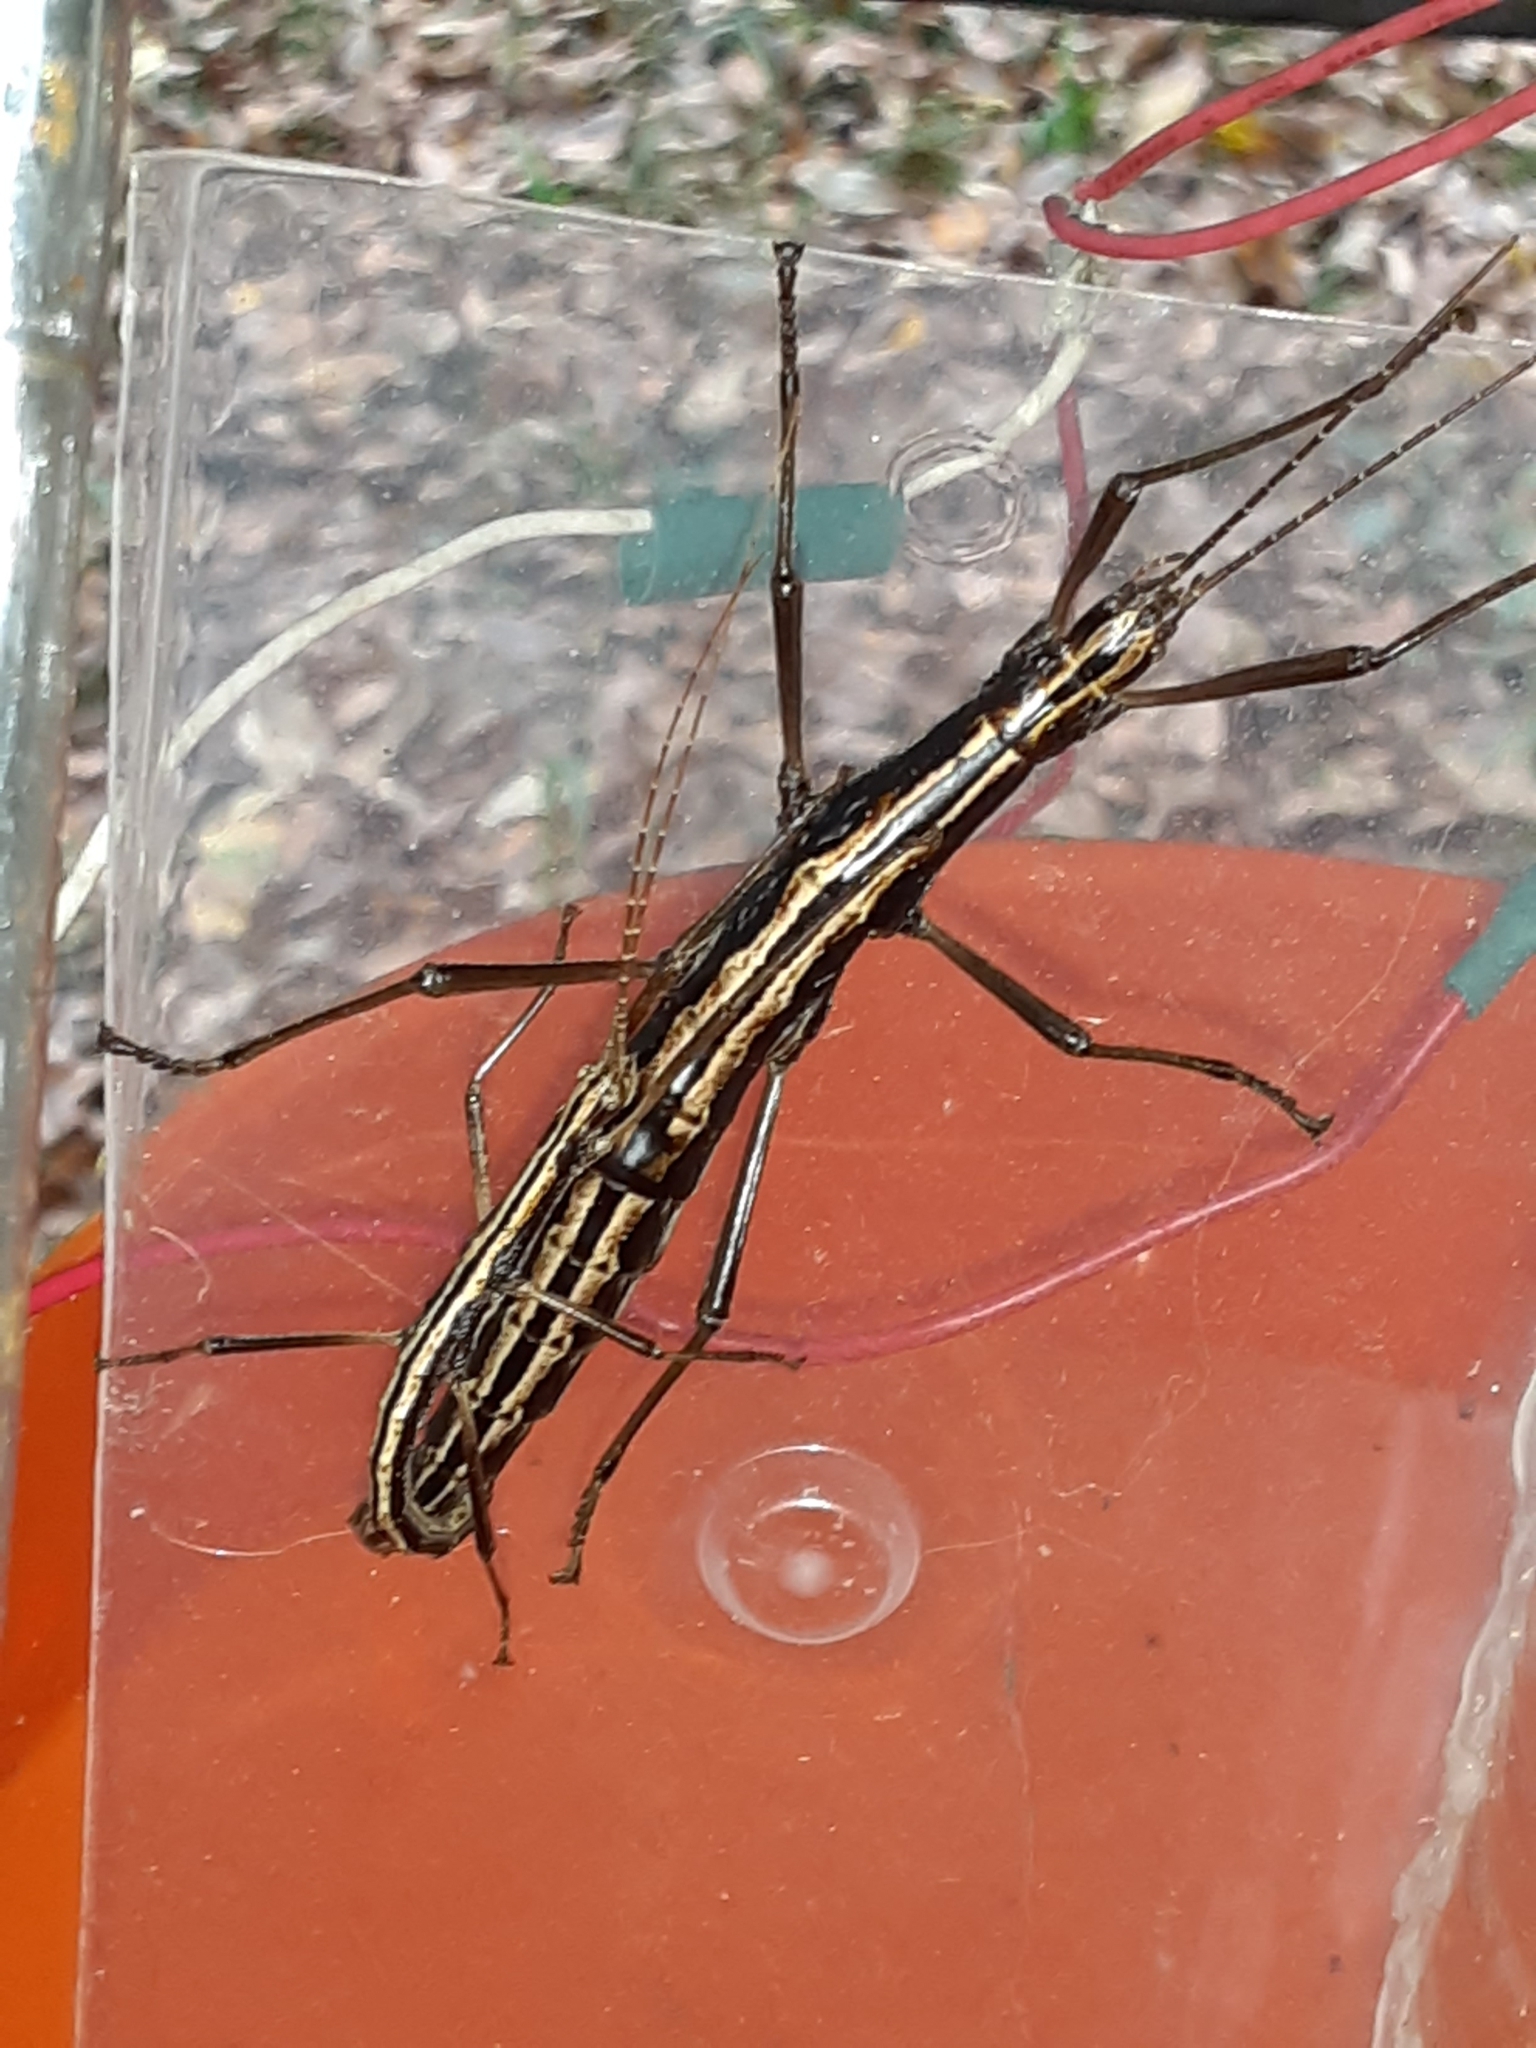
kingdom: Animalia
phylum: Arthropoda
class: Insecta
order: Phasmida
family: Pseudophasmatidae
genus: Anisomorpha
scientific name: Anisomorpha buprestoides
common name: Florida stick insect
